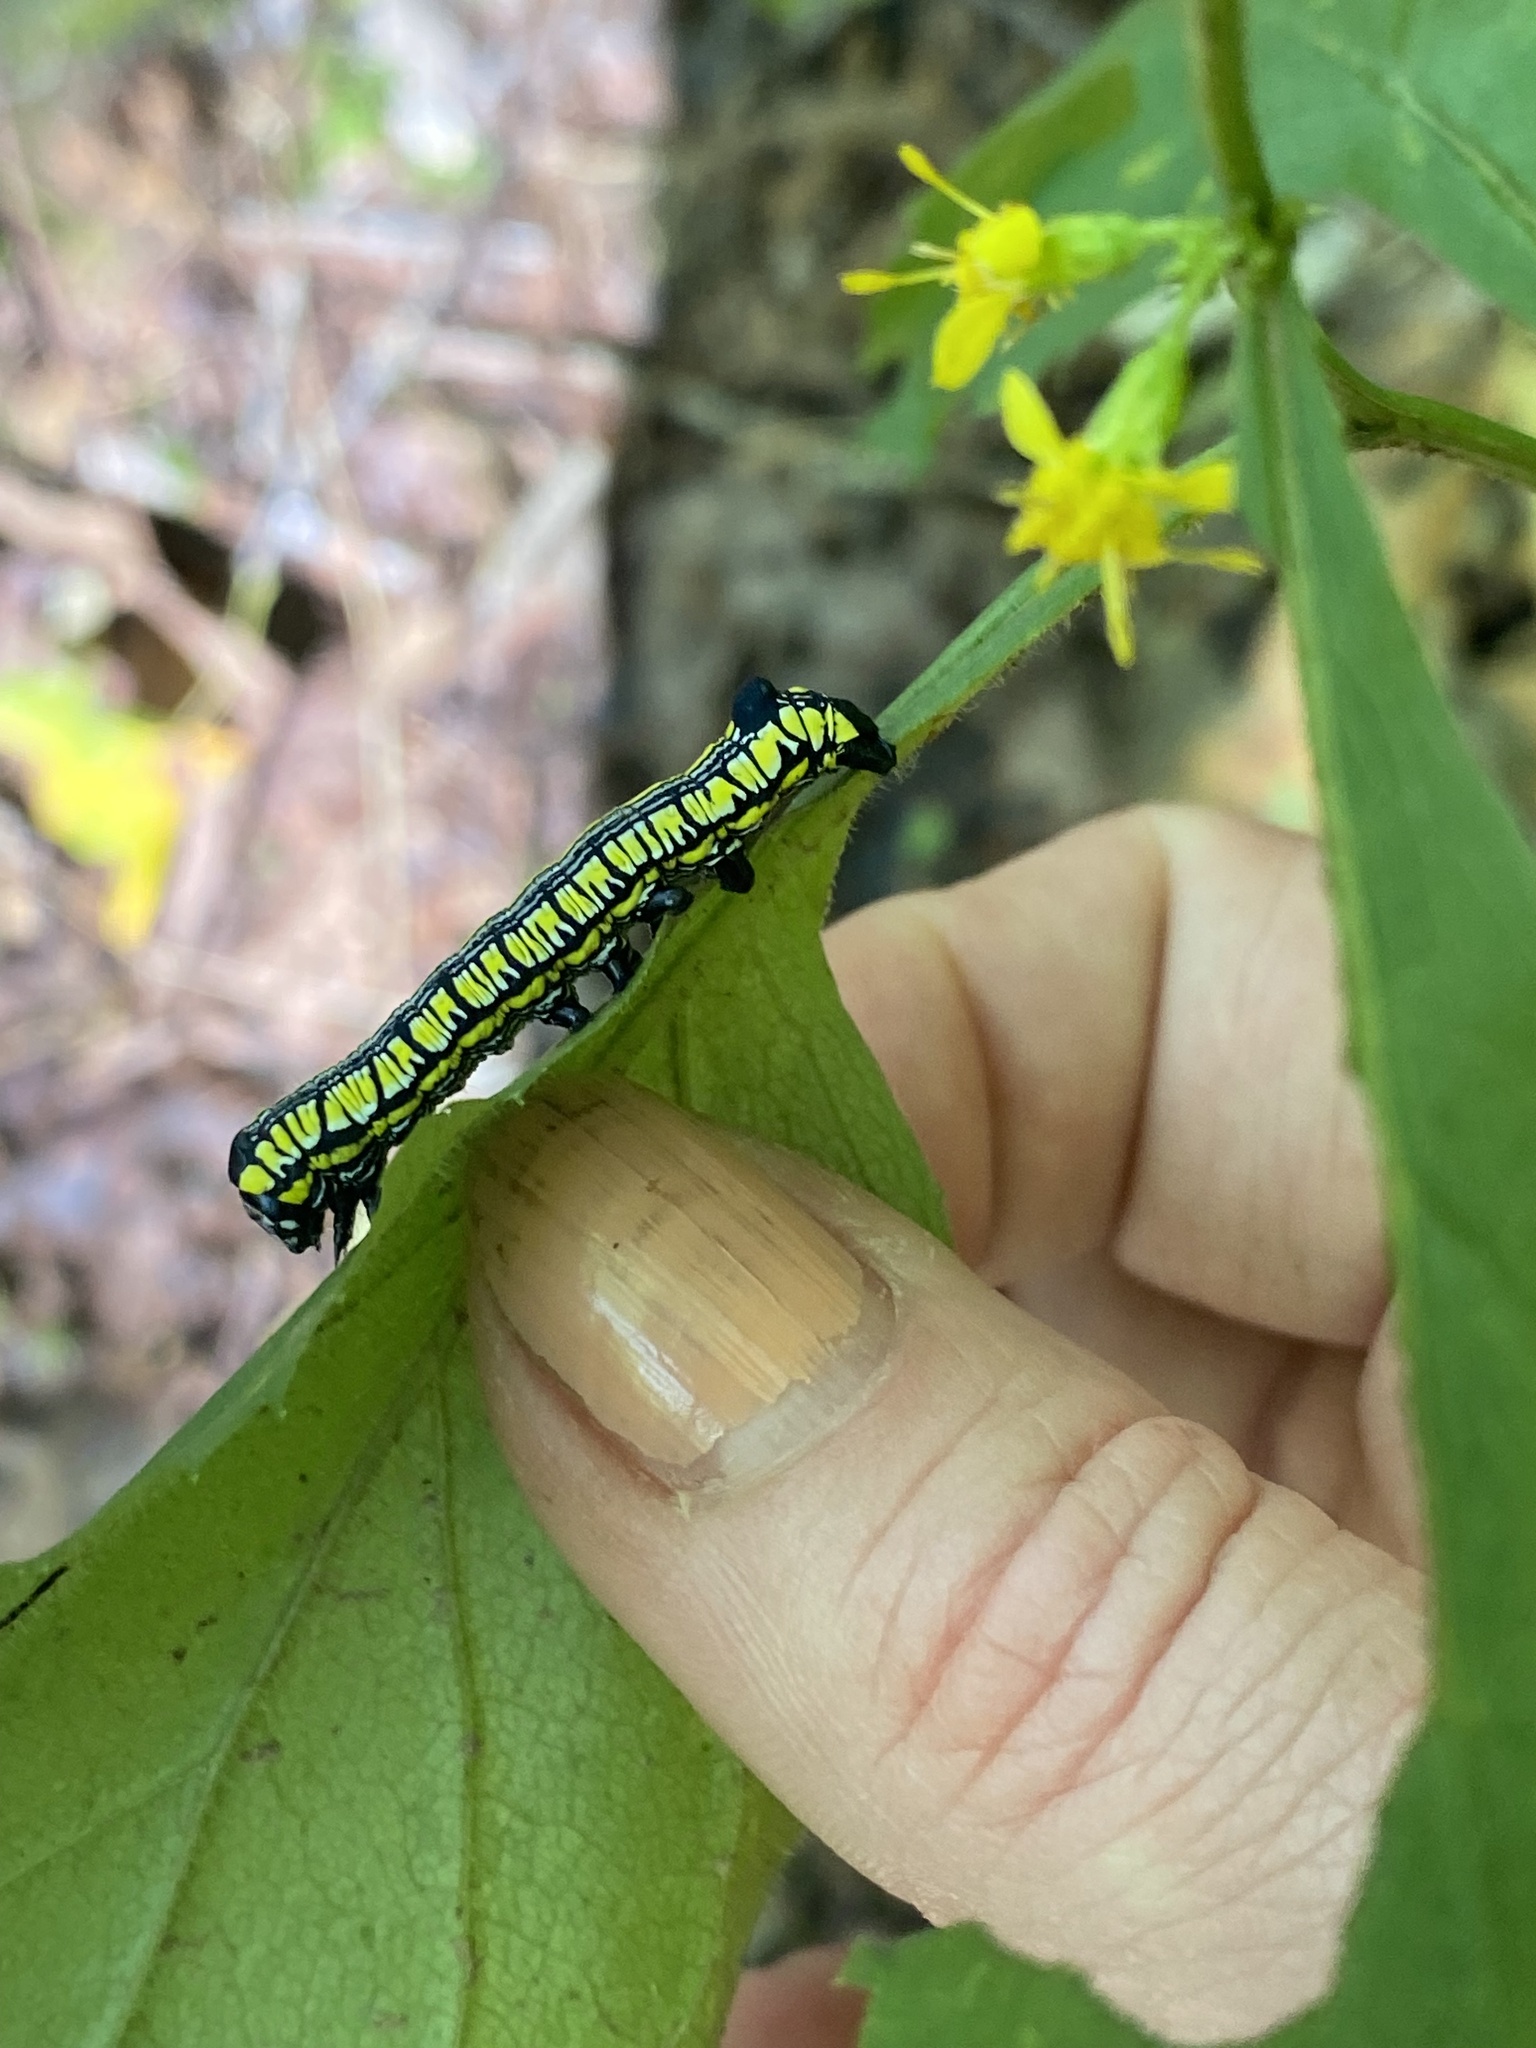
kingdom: Animalia
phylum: Arthropoda
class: Insecta
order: Lepidoptera
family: Noctuidae
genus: Cucullia
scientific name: Cucullia convexipennis
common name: Brown-hooded owlet
